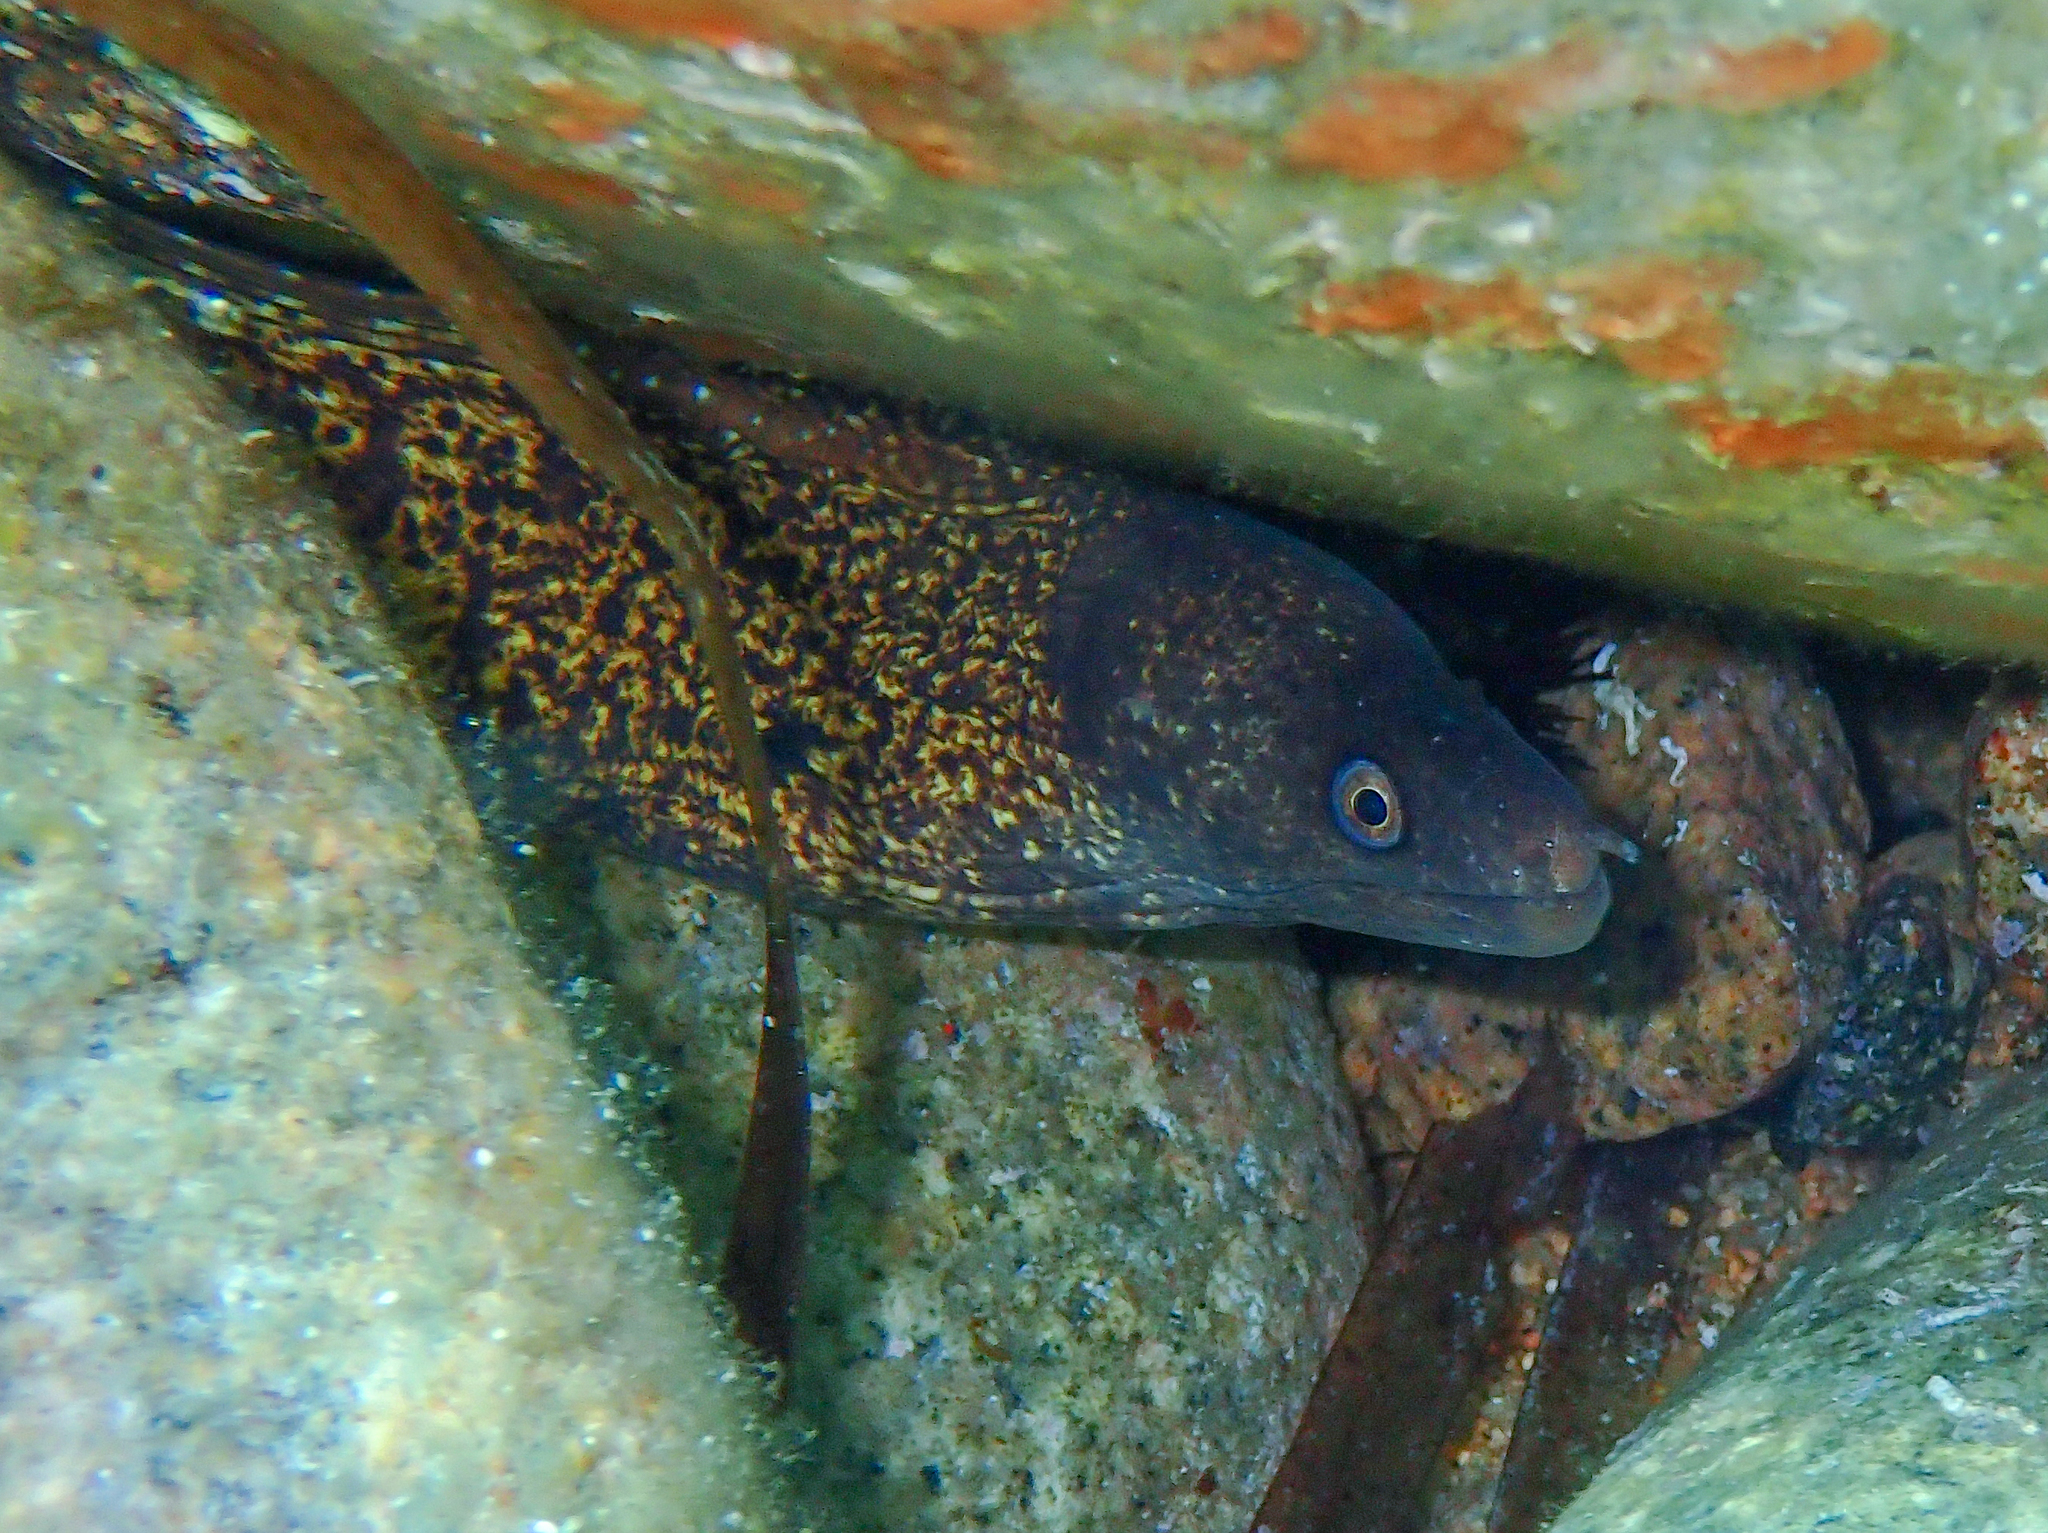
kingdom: Animalia
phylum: Chordata
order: Anguilliformes
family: Muraenidae
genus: Muraena
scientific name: Muraena helena
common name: Mediterranean moray
